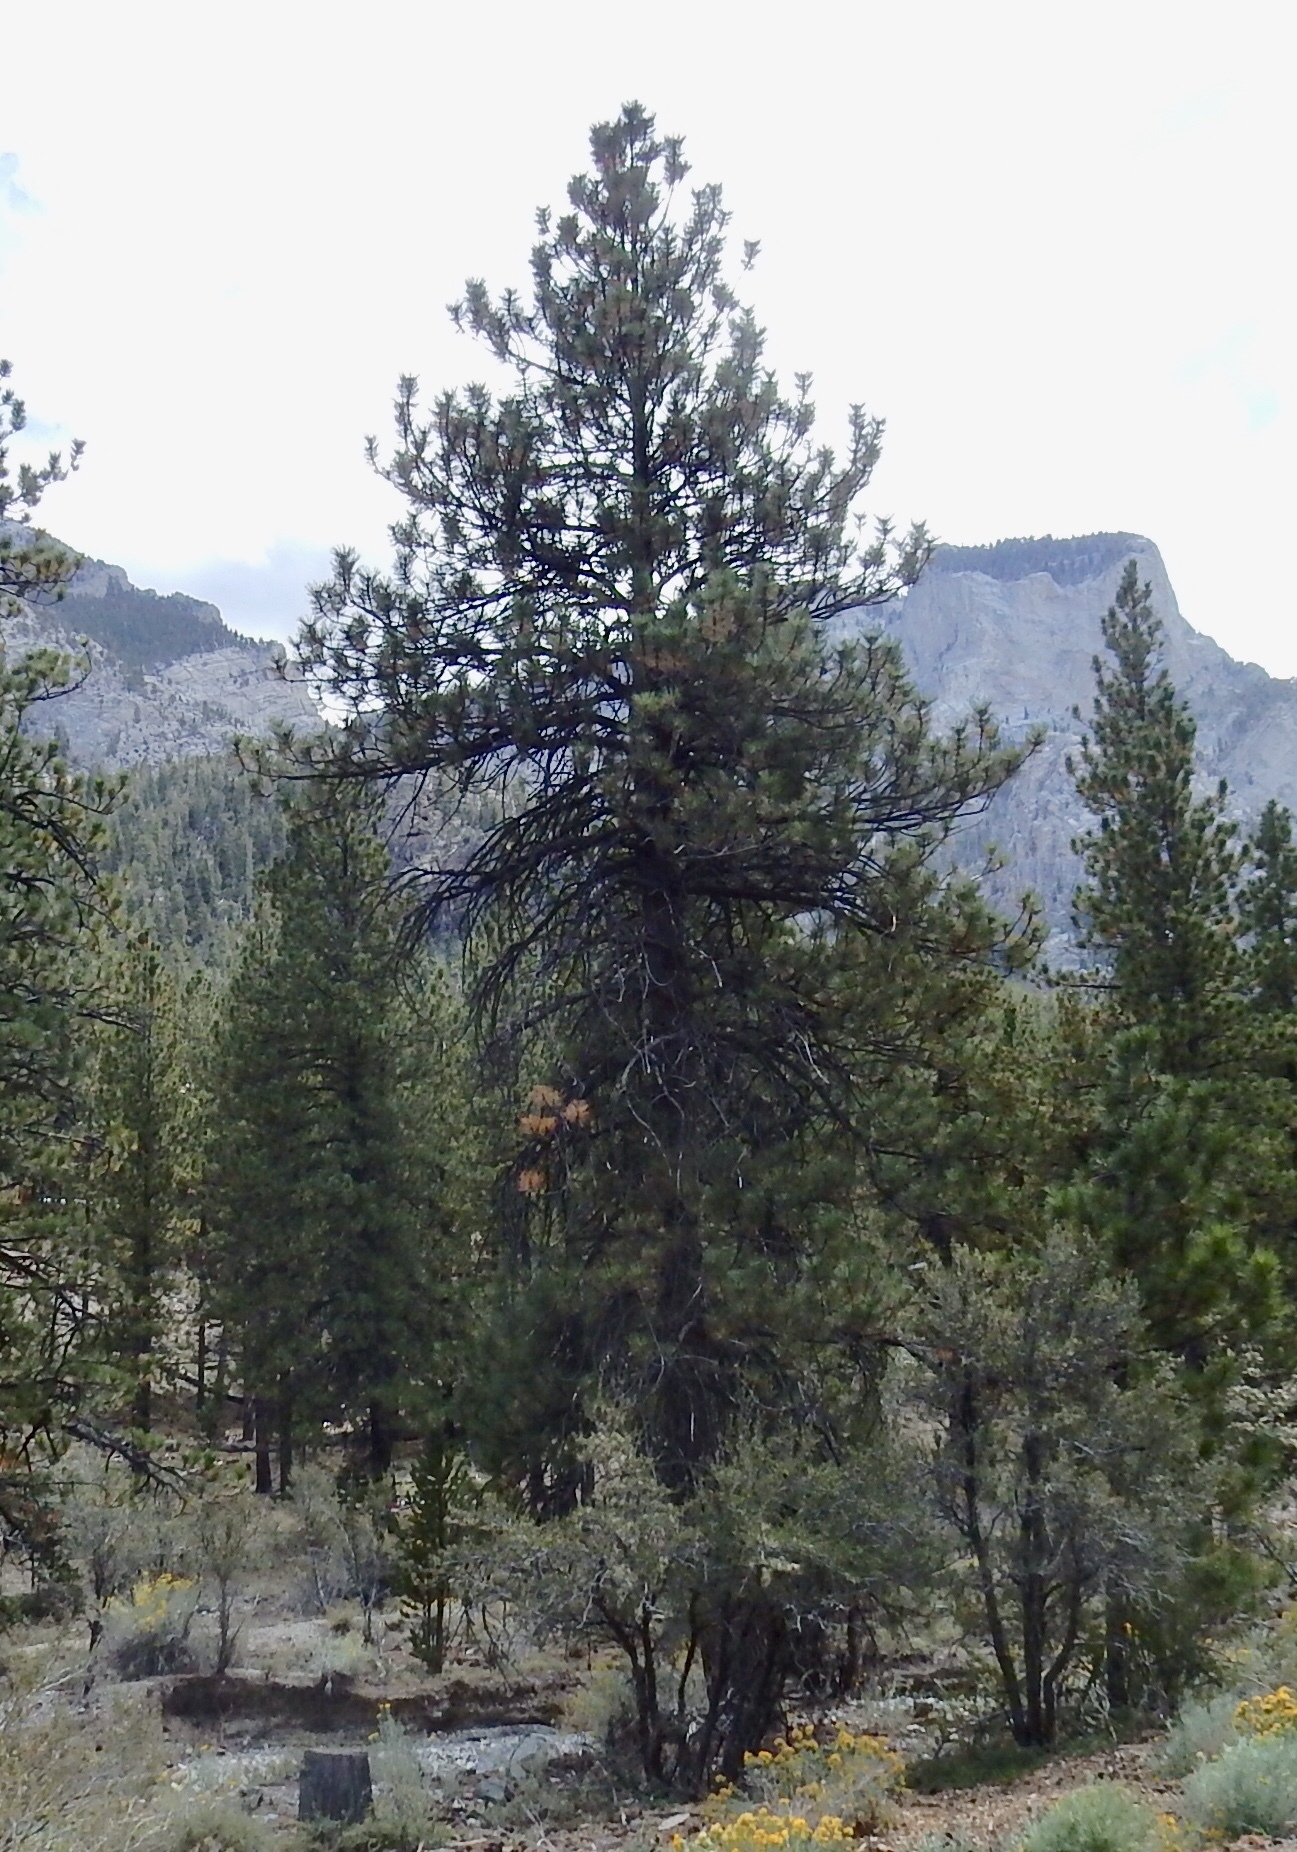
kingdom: Plantae
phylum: Tracheophyta
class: Pinopsida
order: Pinales
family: Pinaceae
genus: Pinus
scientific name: Pinus ponderosa
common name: Western yellow-pine
